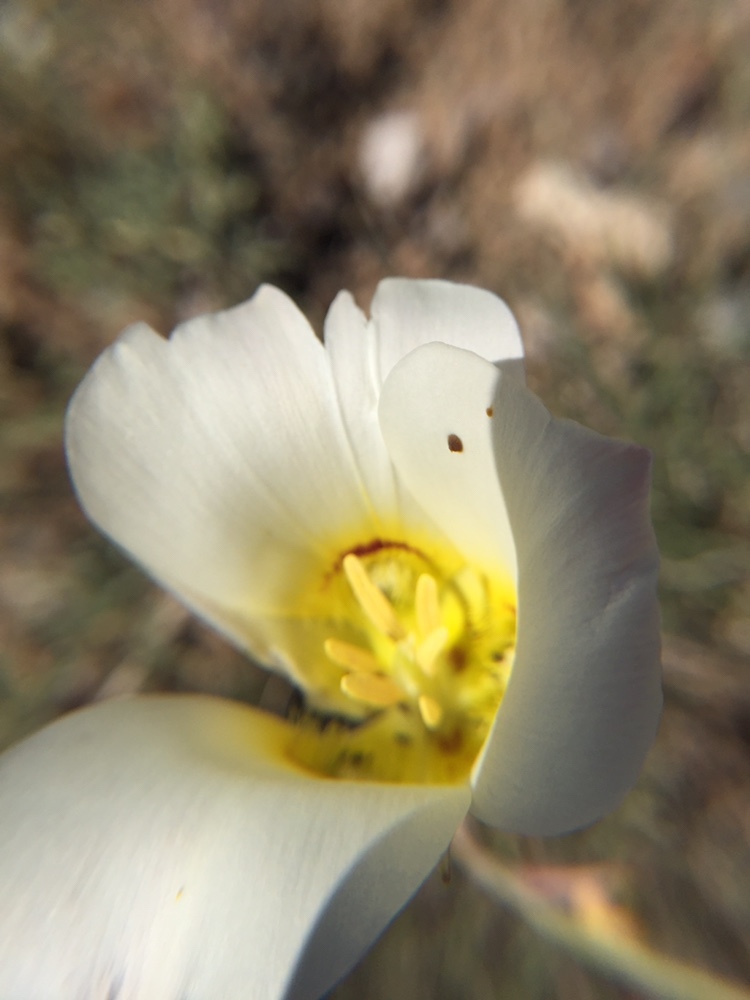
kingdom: Plantae
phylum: Tracheophyta
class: Liliopsida
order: Liliales
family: Liliaceae
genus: Calochortus
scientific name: Calochortus nuttallii
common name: Sego-lily
